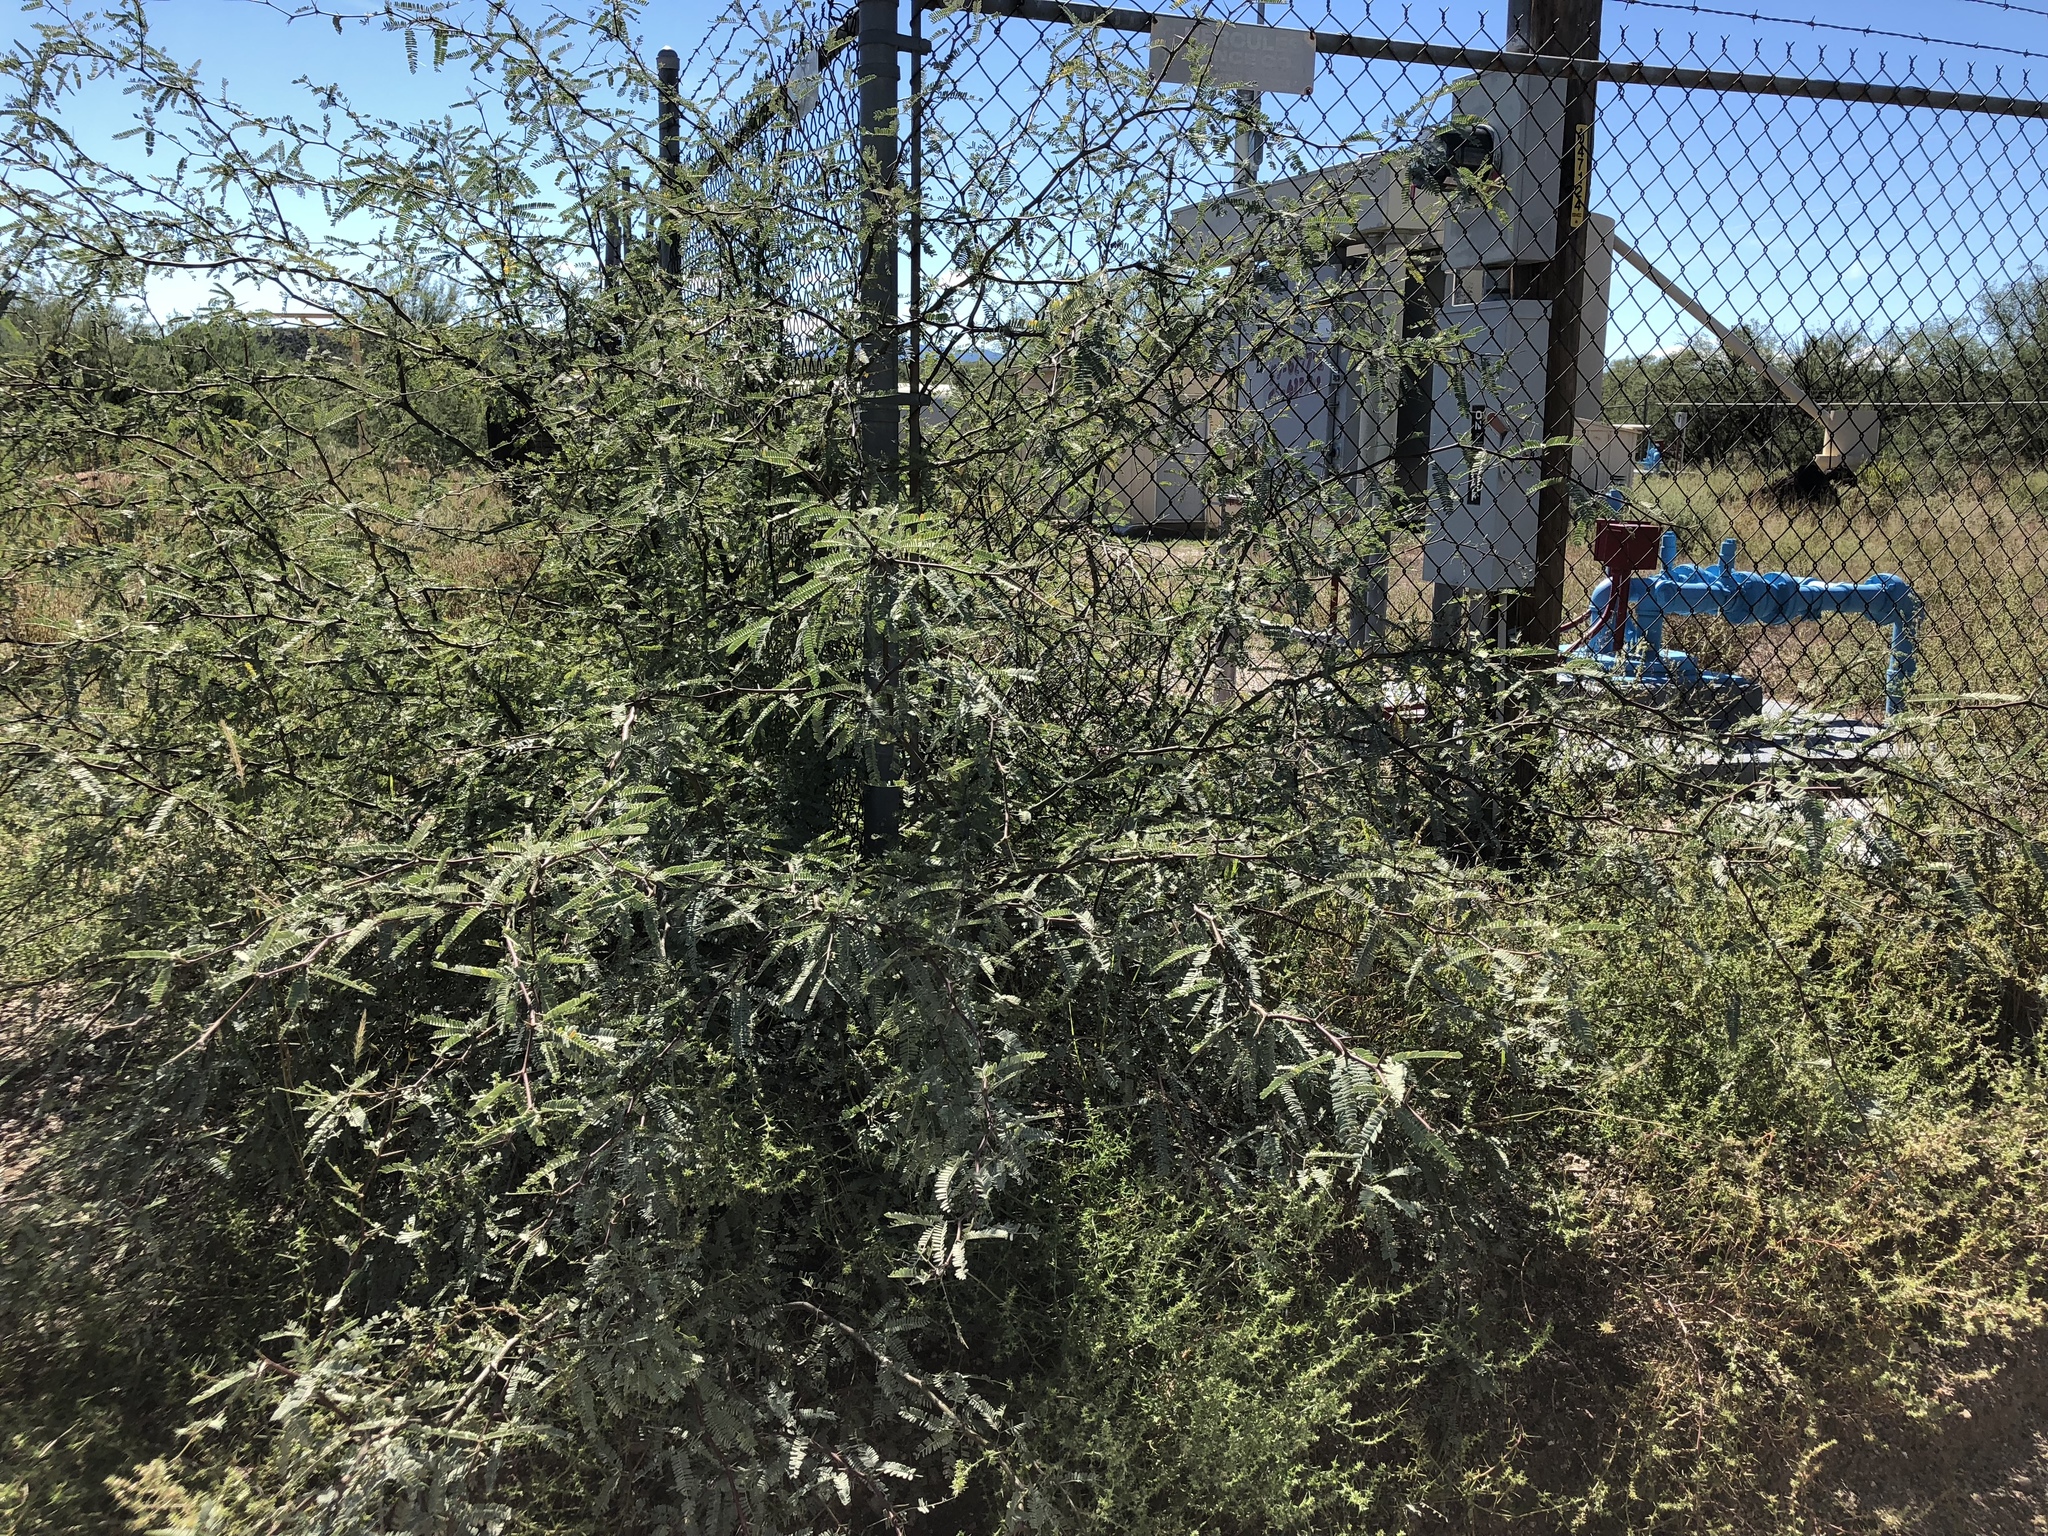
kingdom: Plantae
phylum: Tracheophyta
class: Magnoliopsida
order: Fabales
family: Fabaceae
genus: Prosopis
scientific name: Prosopis velutina
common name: Velvet mesquite
